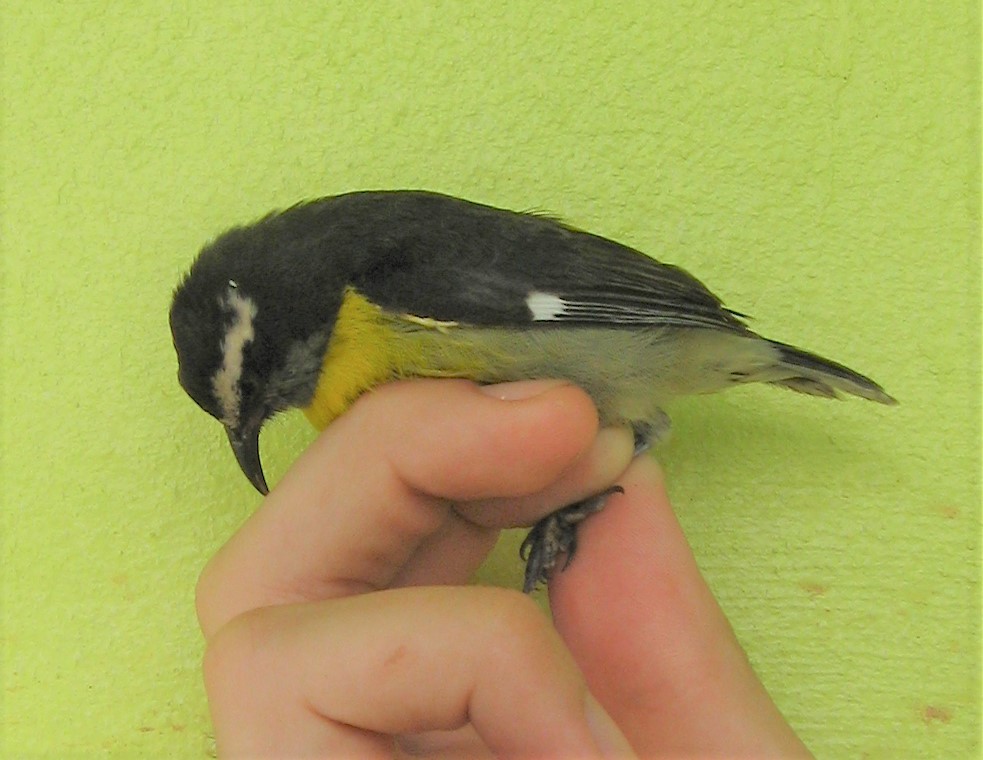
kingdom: Animalia
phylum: Chordata
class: Aves
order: Passeriformes
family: Thraupidae
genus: Coereba
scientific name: Coereba flaveola
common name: Bananaquit
